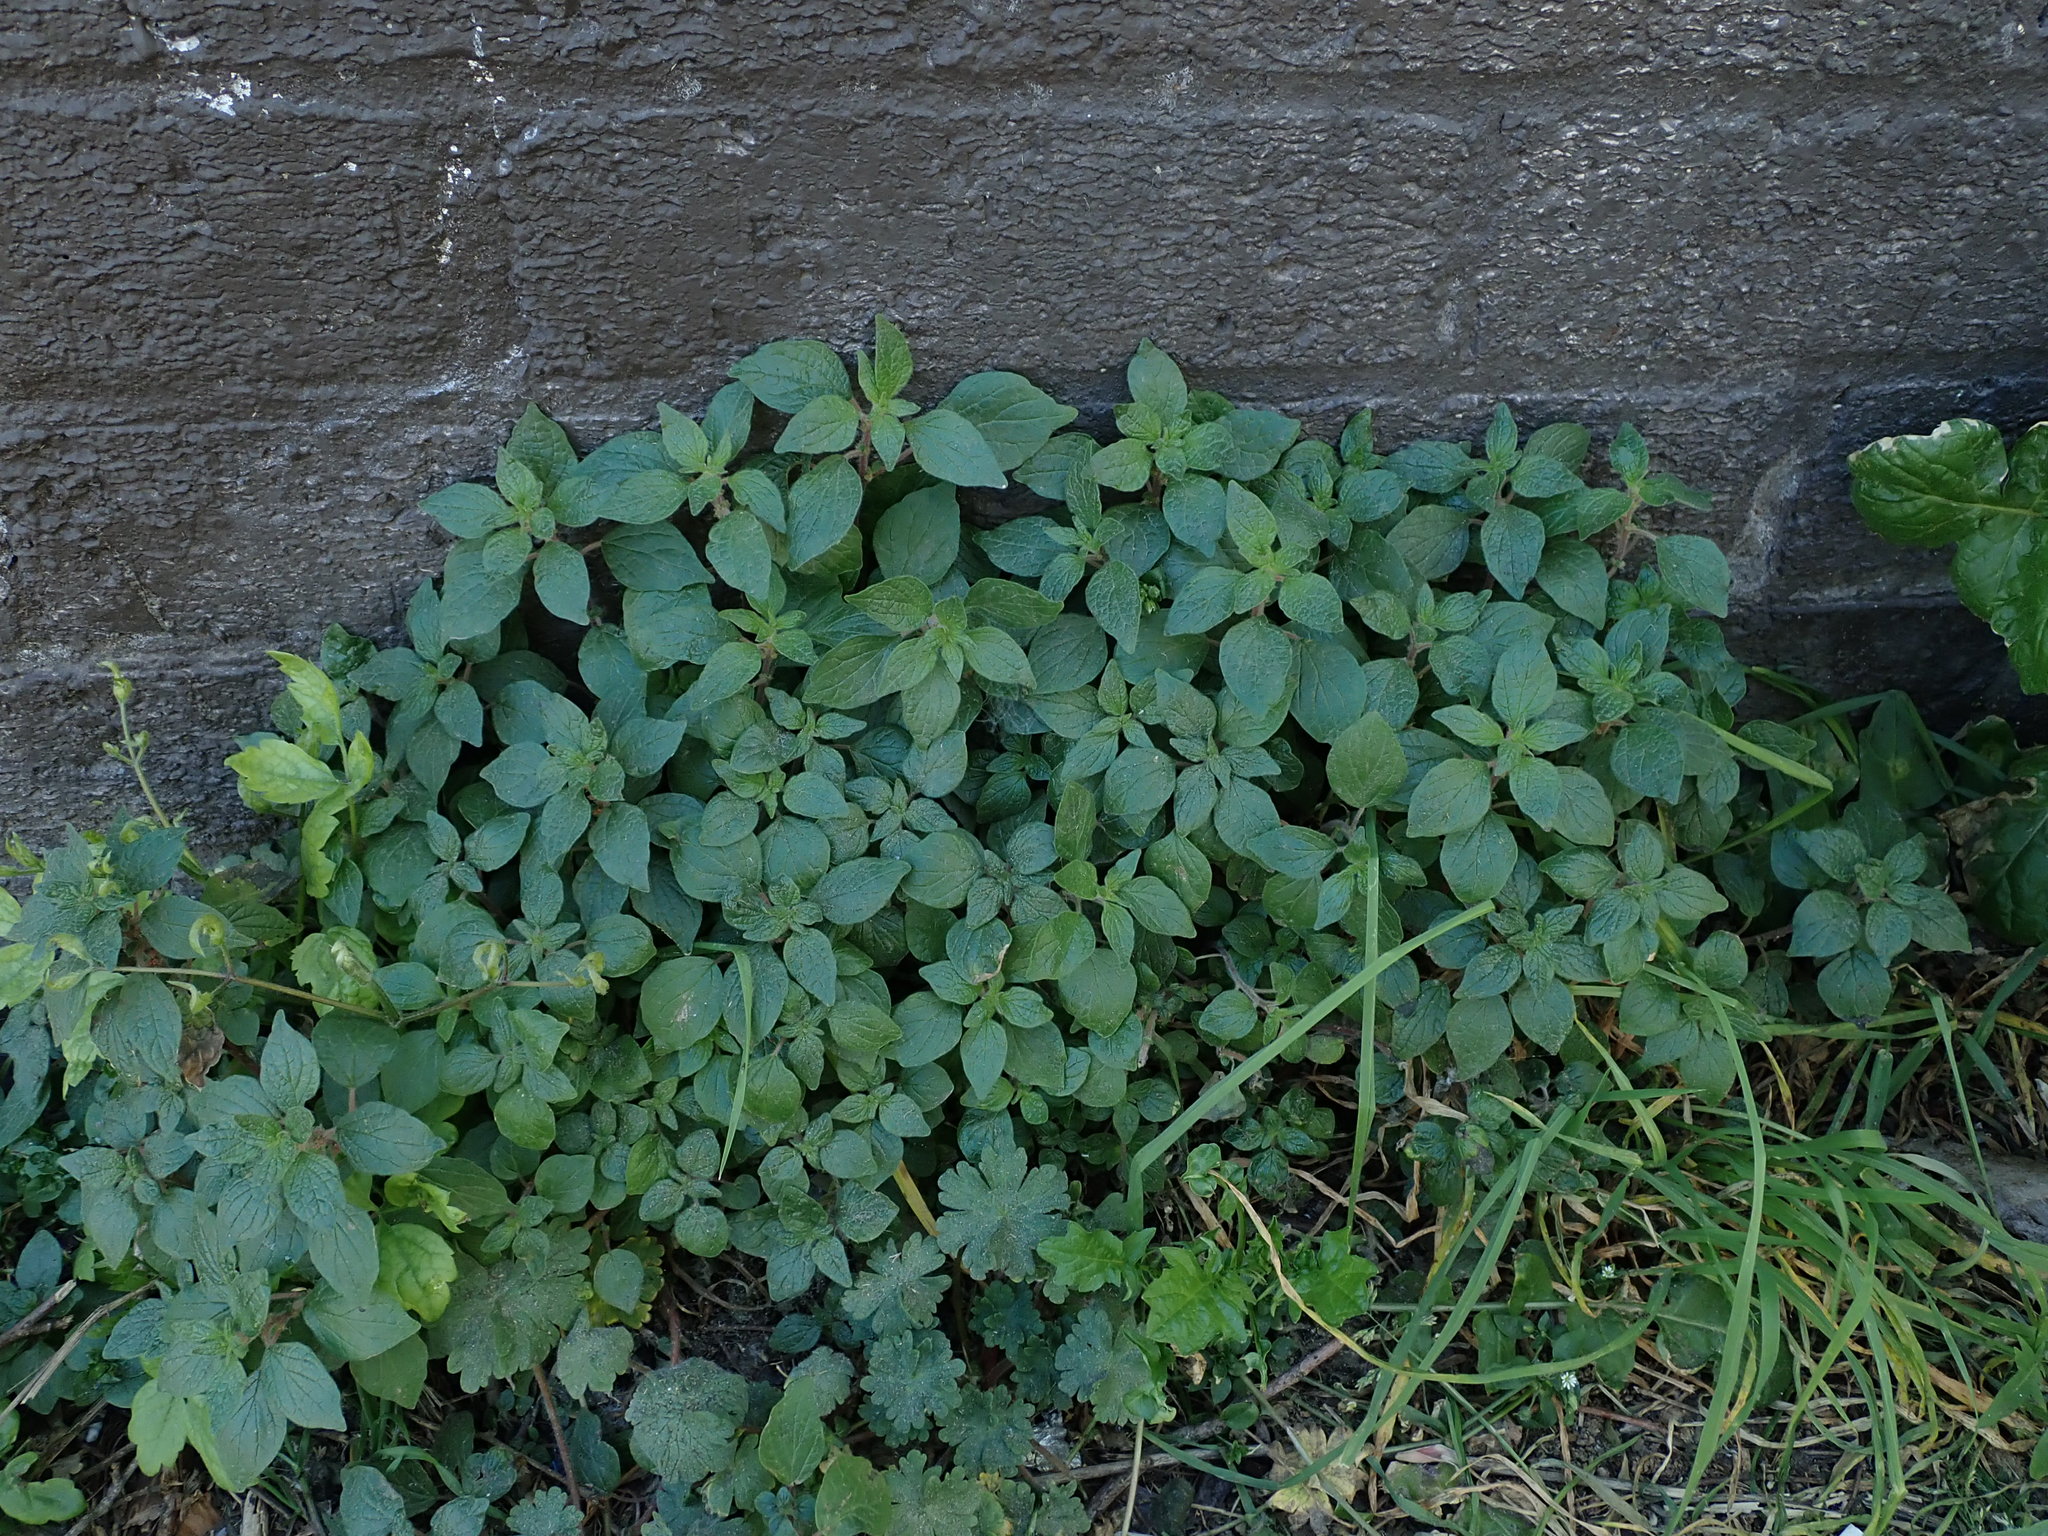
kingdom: Plantae
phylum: Tracheophyta
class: Magnoliopsida
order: Rosales
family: Urticaceae
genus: Parietaria
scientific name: Parietaria judaica
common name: Pellitory-of-the-wall
